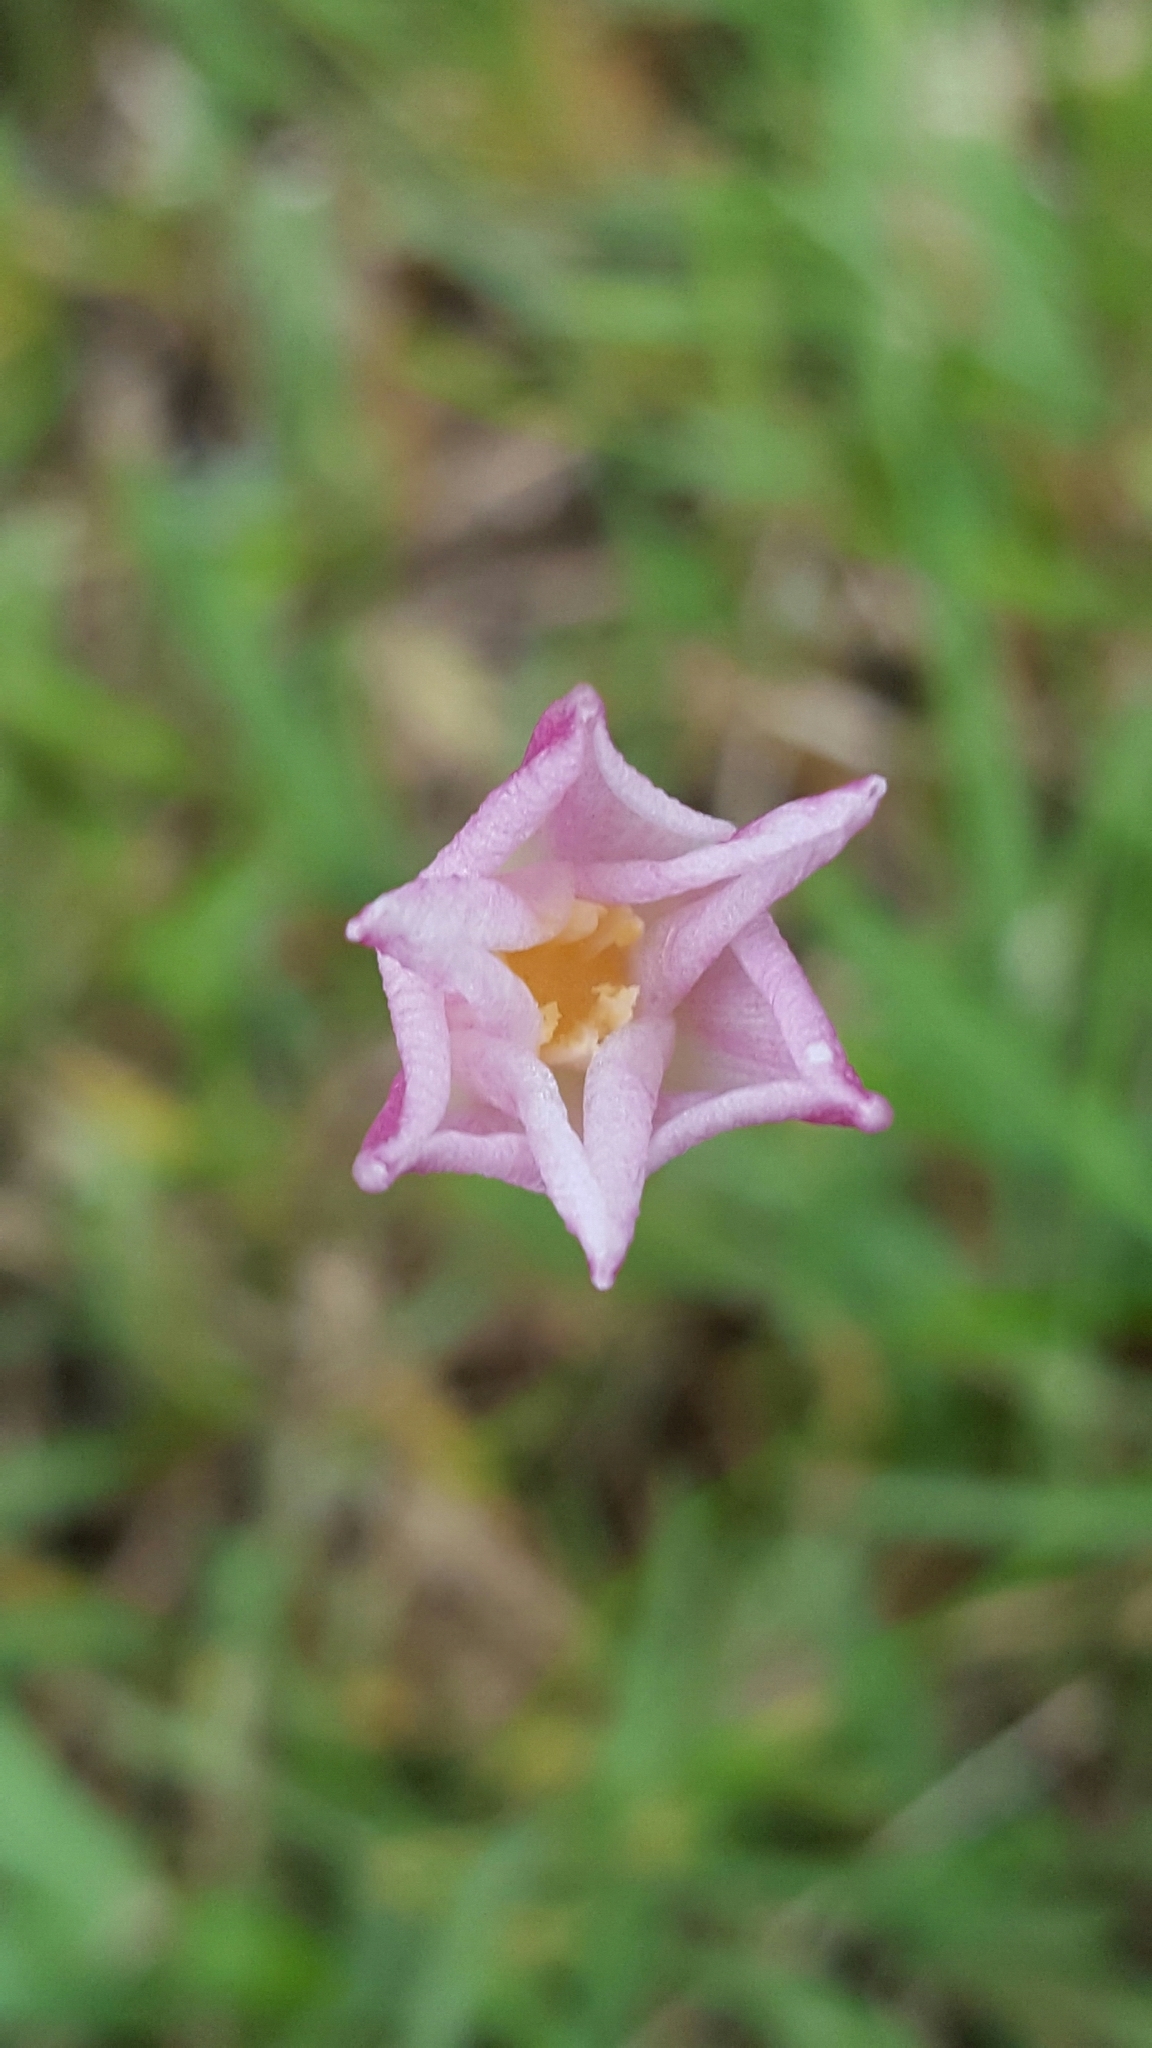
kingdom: Plantae
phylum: Tracheophyta
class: Liliopsida
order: Asparagales
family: Amaryllidaceae
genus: Zephyranthes
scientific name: Zephyranthes chlorosolen
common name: Evening rain-lily
